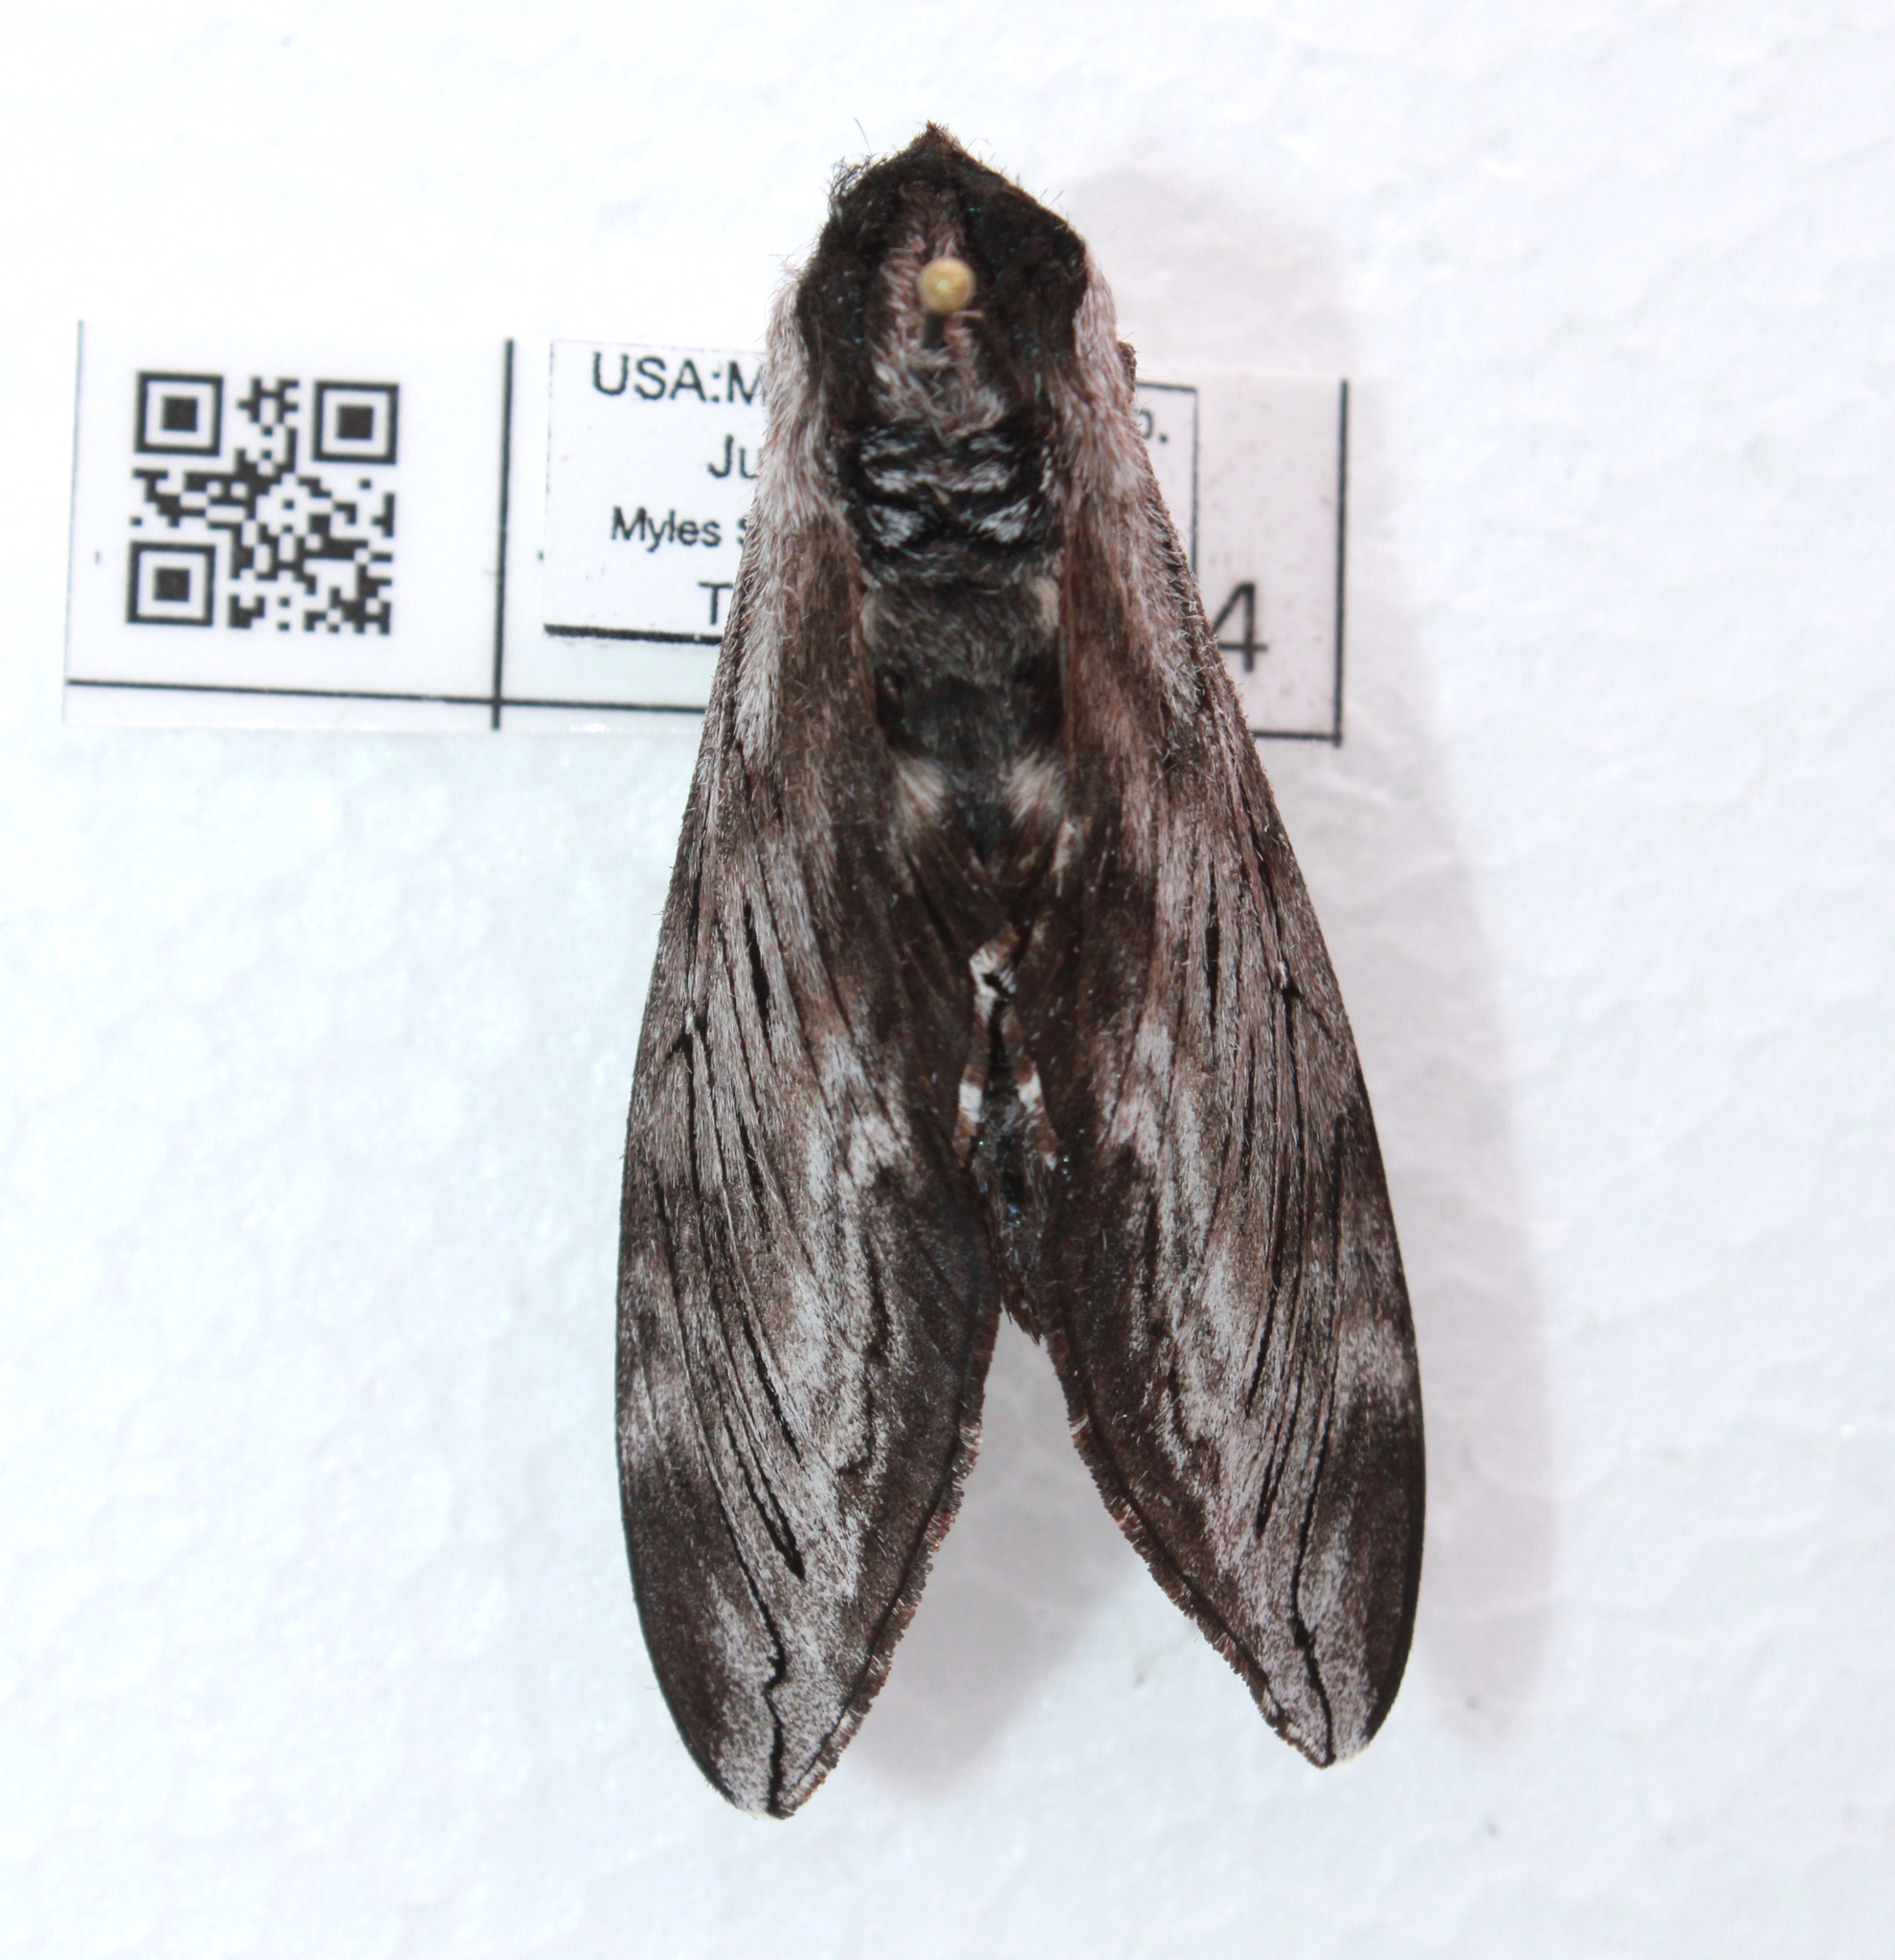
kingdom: Animalia
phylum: Arthropoda
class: Insecta
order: Lepidoptera
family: Sphingidae
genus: Sphinx
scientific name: Sphinx poecila
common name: Northern apple sphinx
